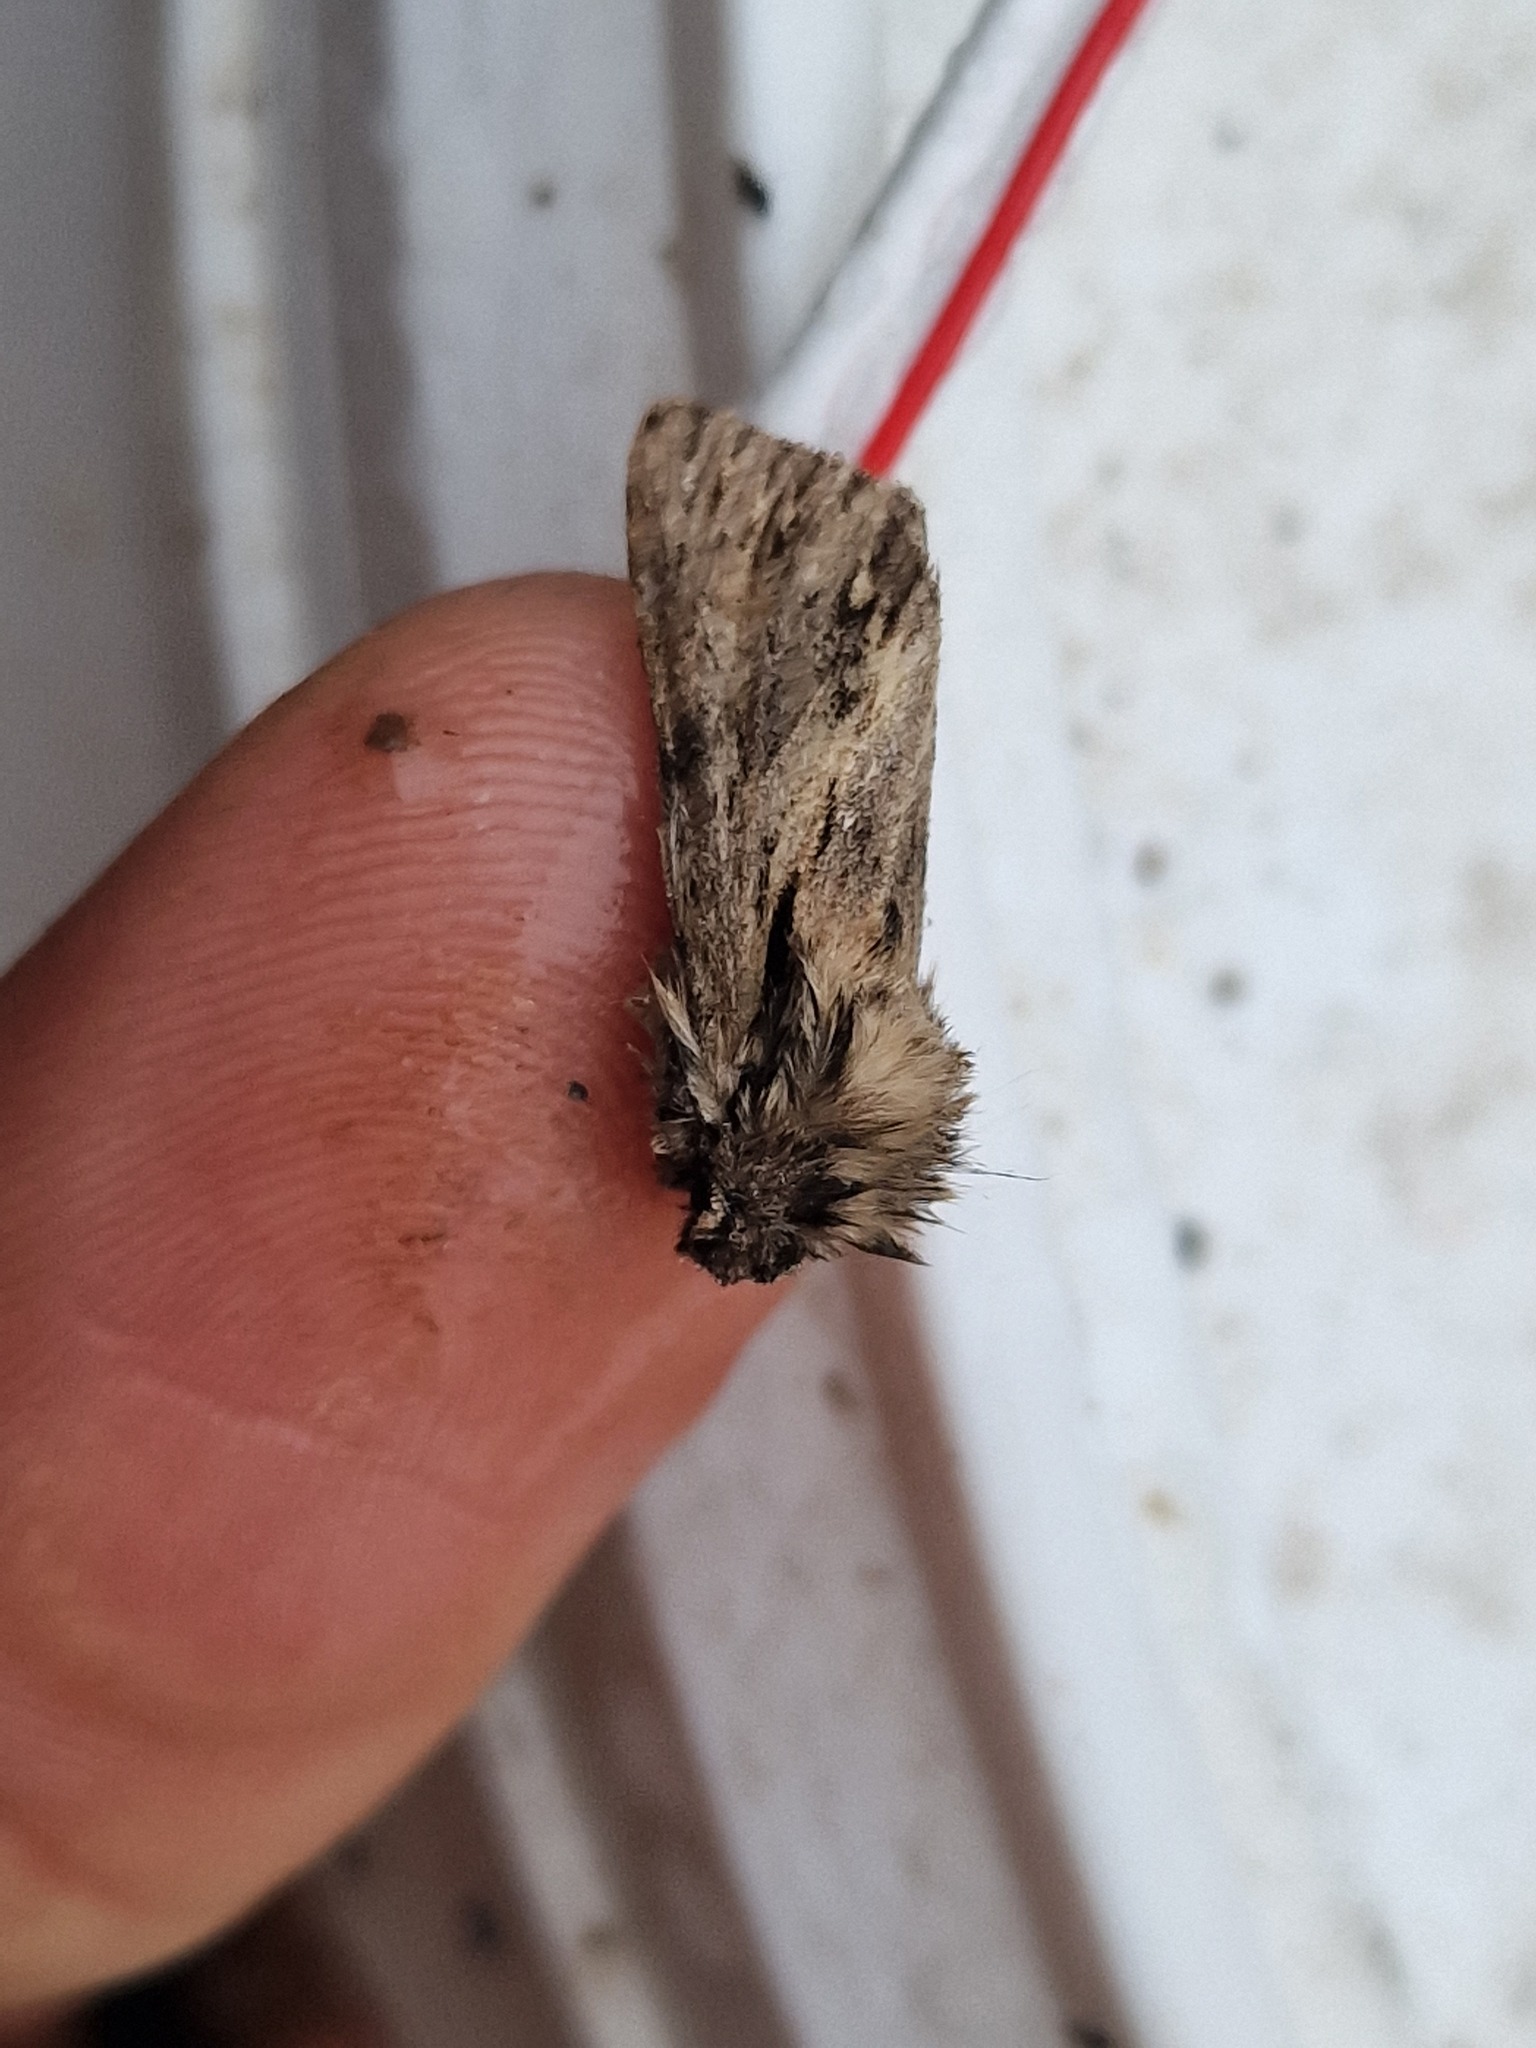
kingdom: Animalia
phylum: Arthropoda
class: Insecta
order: Lepidoptera
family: Noctuidae
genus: Asteroscopus
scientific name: Asteroscopus sphinx
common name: The sprawler
